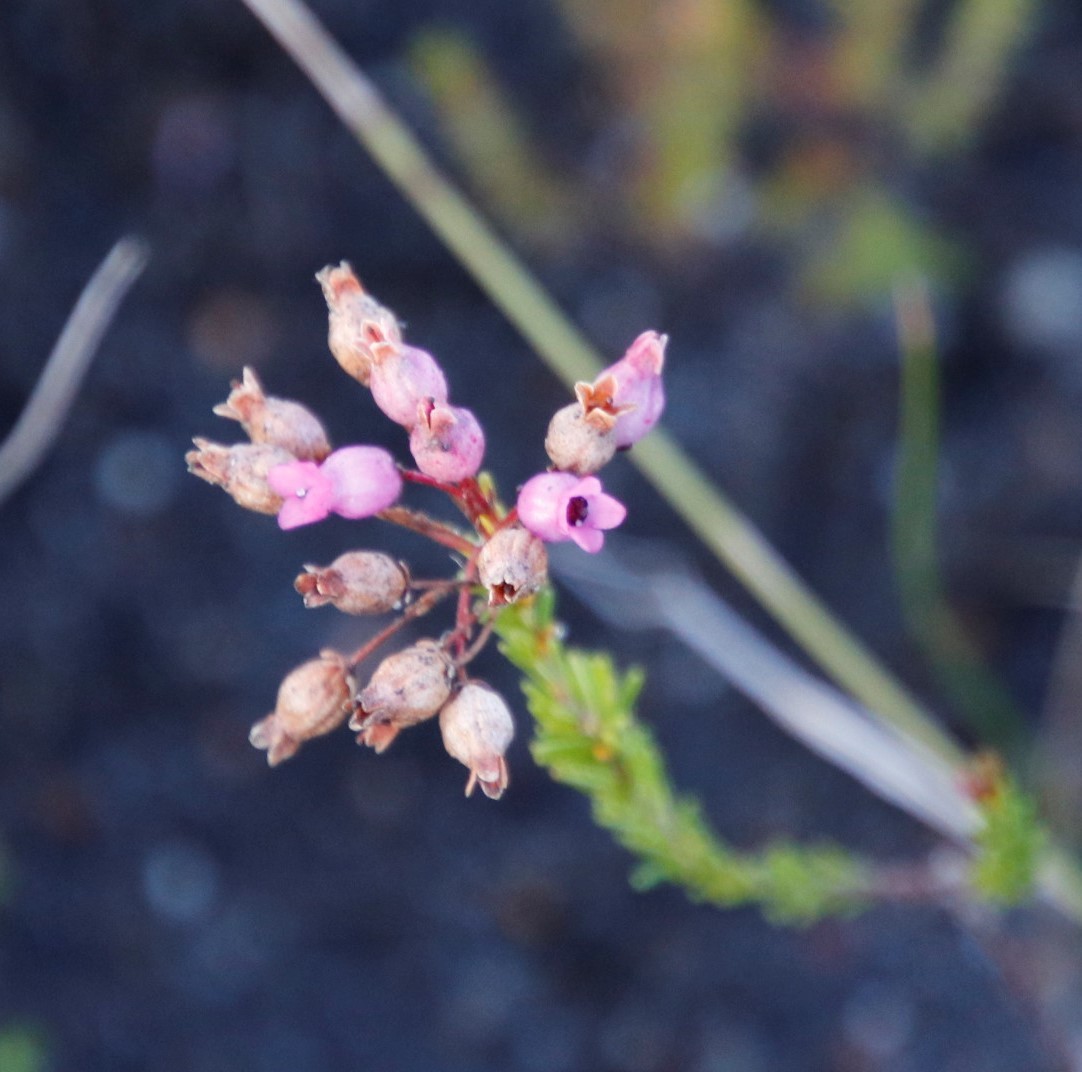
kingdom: Plantae
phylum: Tracheophyta
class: Magnoliopsida
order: Ericales
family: Ericaceae
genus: Erica
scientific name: Erica obliqua
